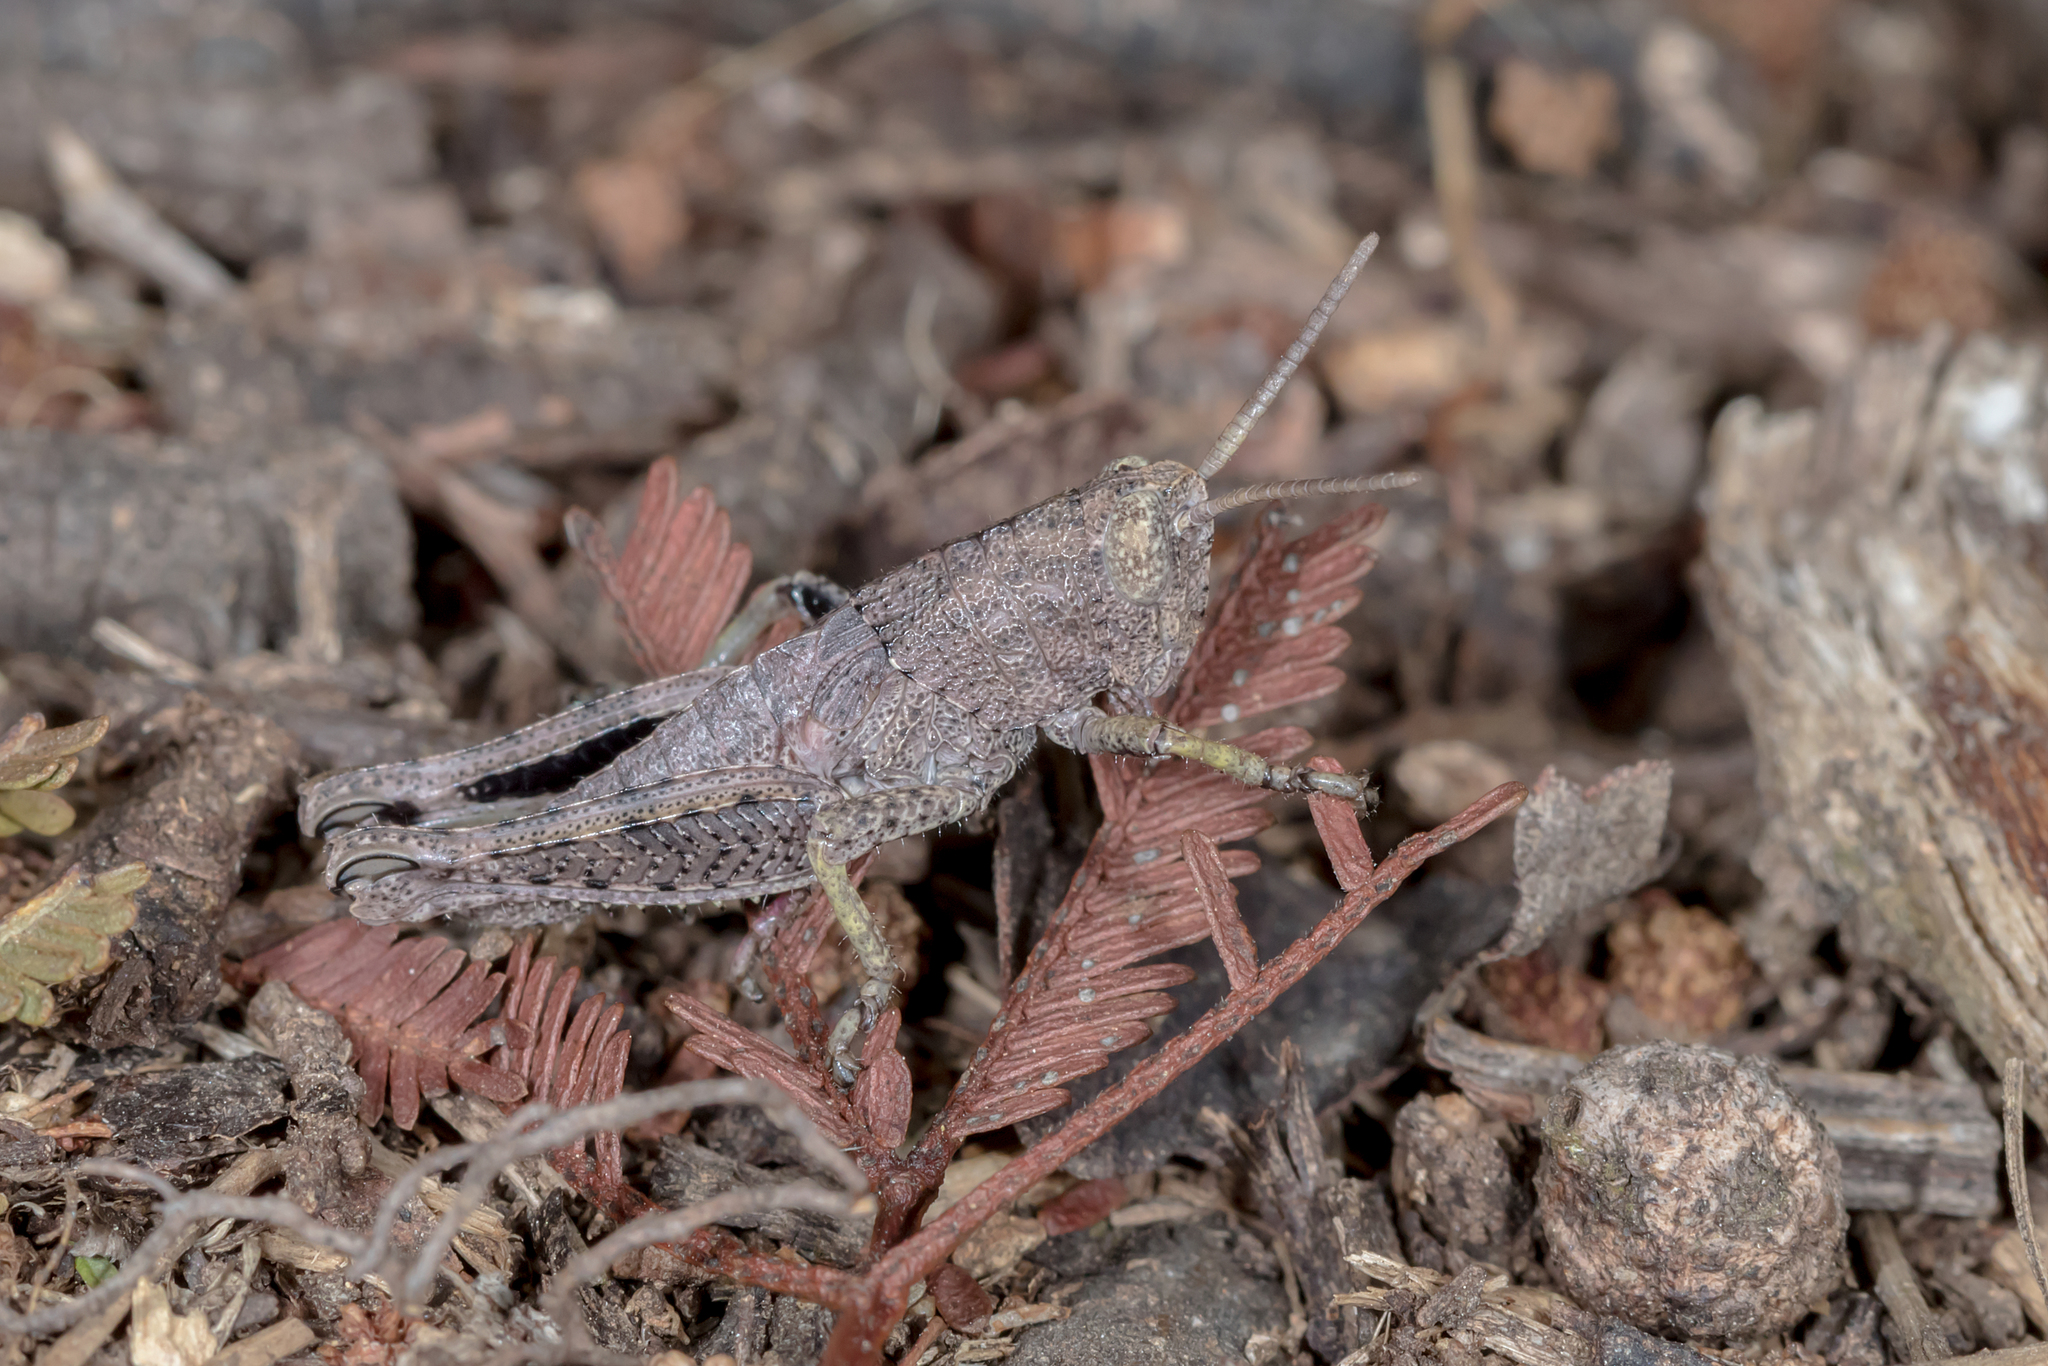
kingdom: Animalia
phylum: Arthropoda
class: Insecta
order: Orthoptera
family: Acrididae
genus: Percassa
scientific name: Percassa rugifrons
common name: Mountain grasshopper
